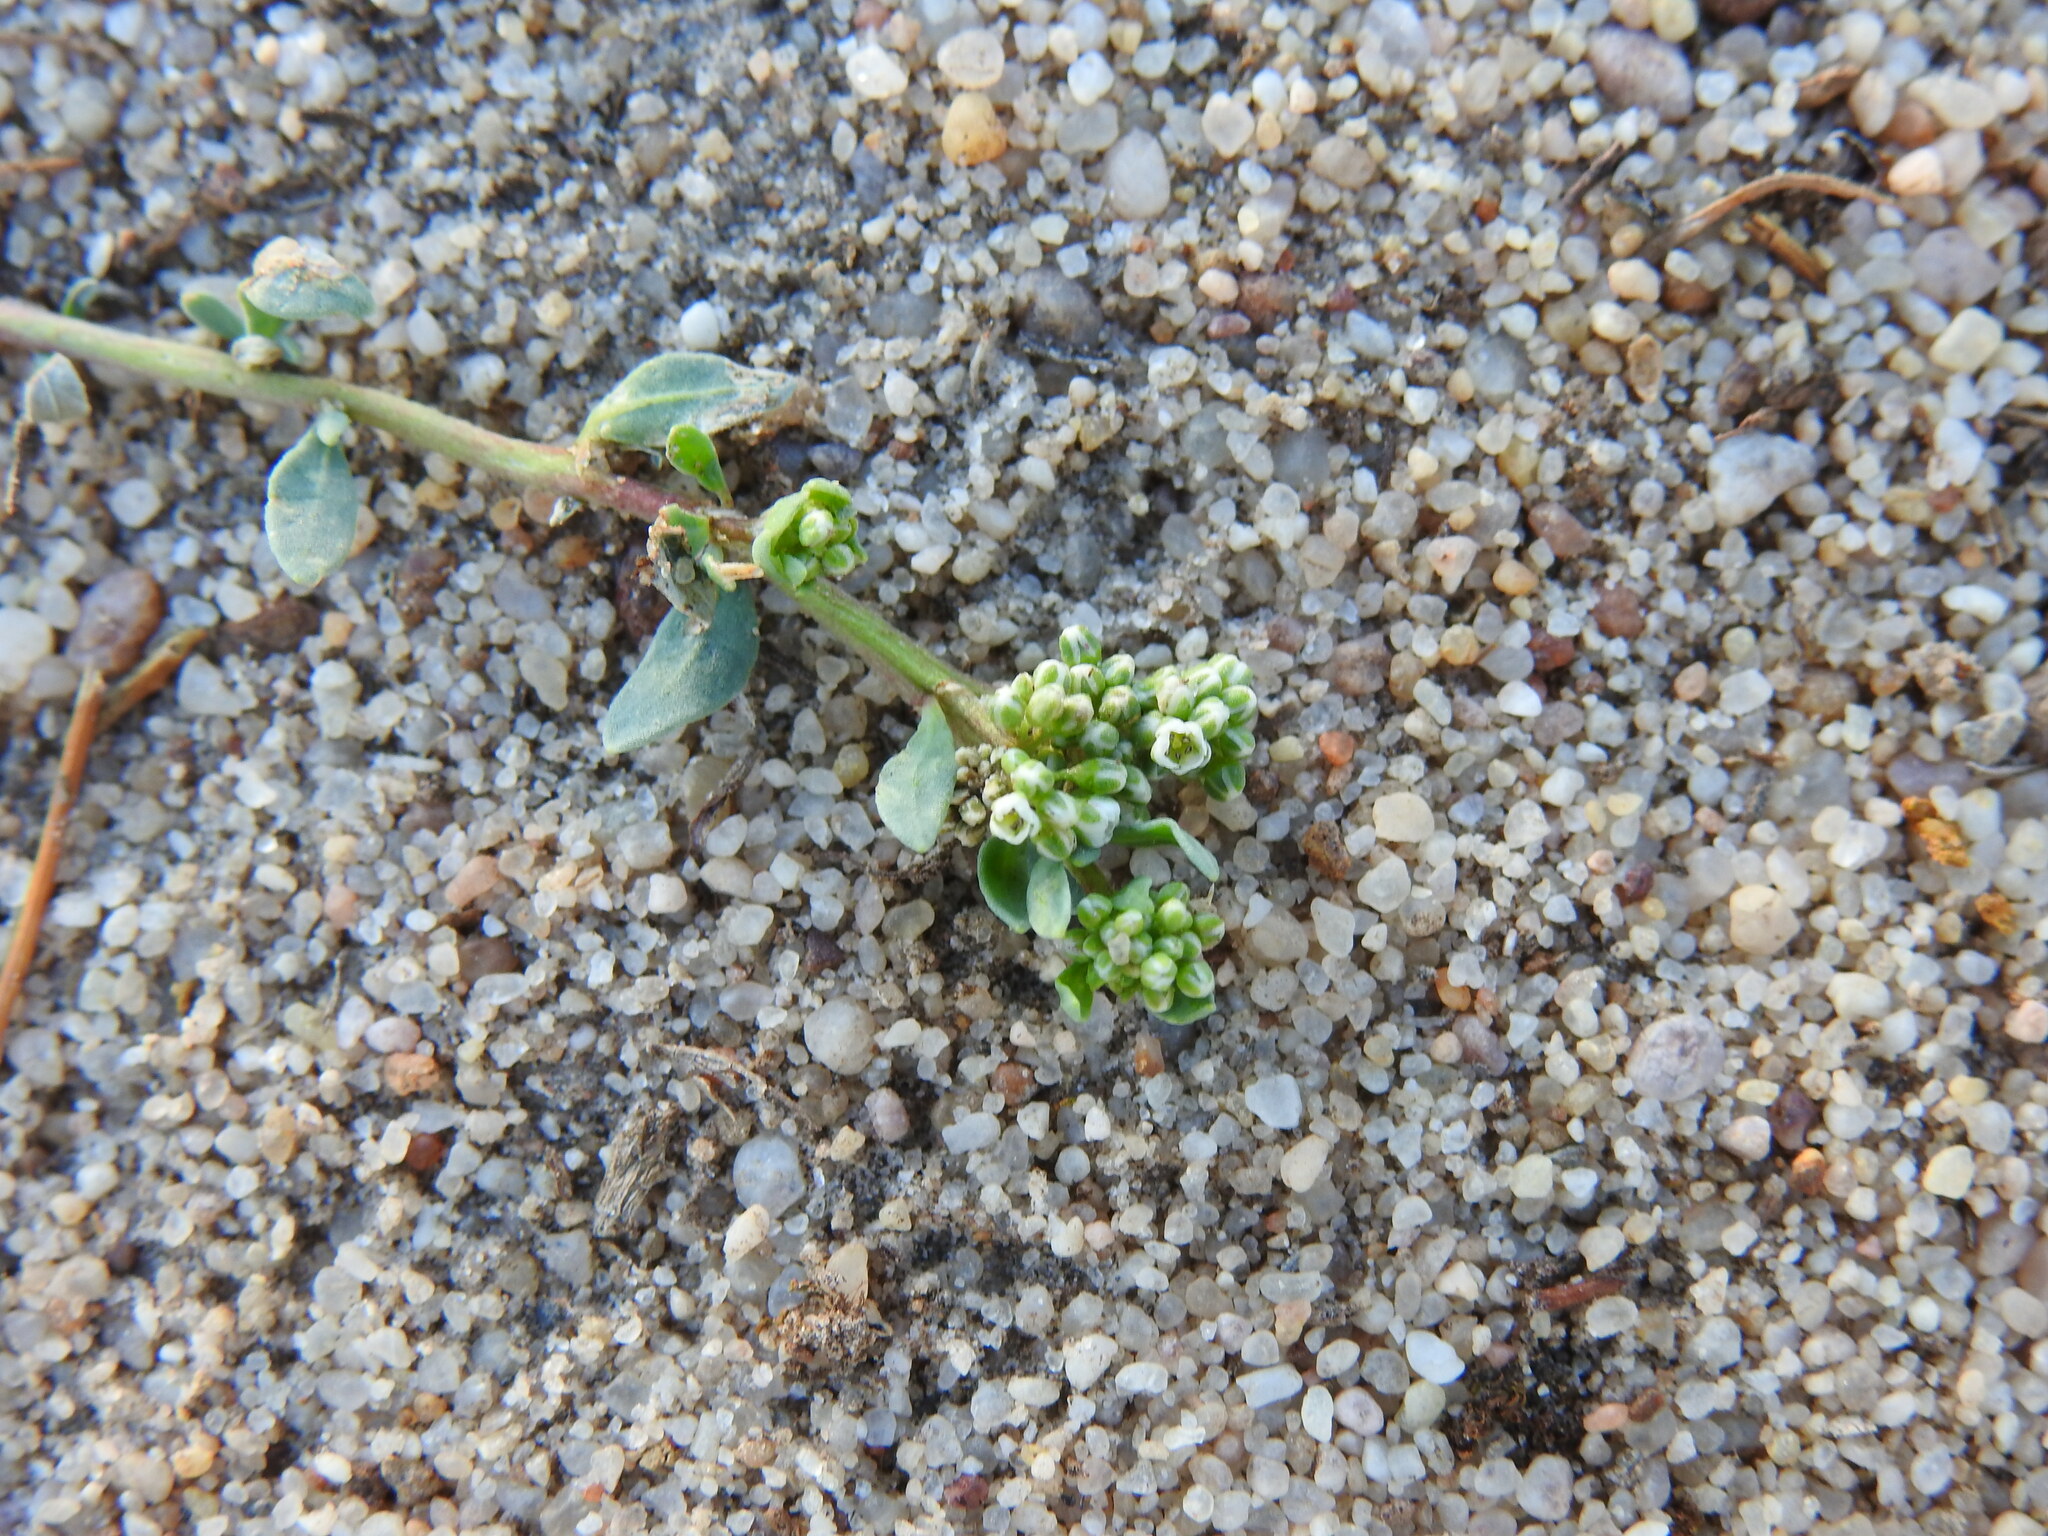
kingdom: Plantae
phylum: Tracheophyta
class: Magnoliopsida
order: Caryophyllales
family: Caryophyllaceae
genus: Corrigiola
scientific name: Corrigiola litoralis
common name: Strapwort
